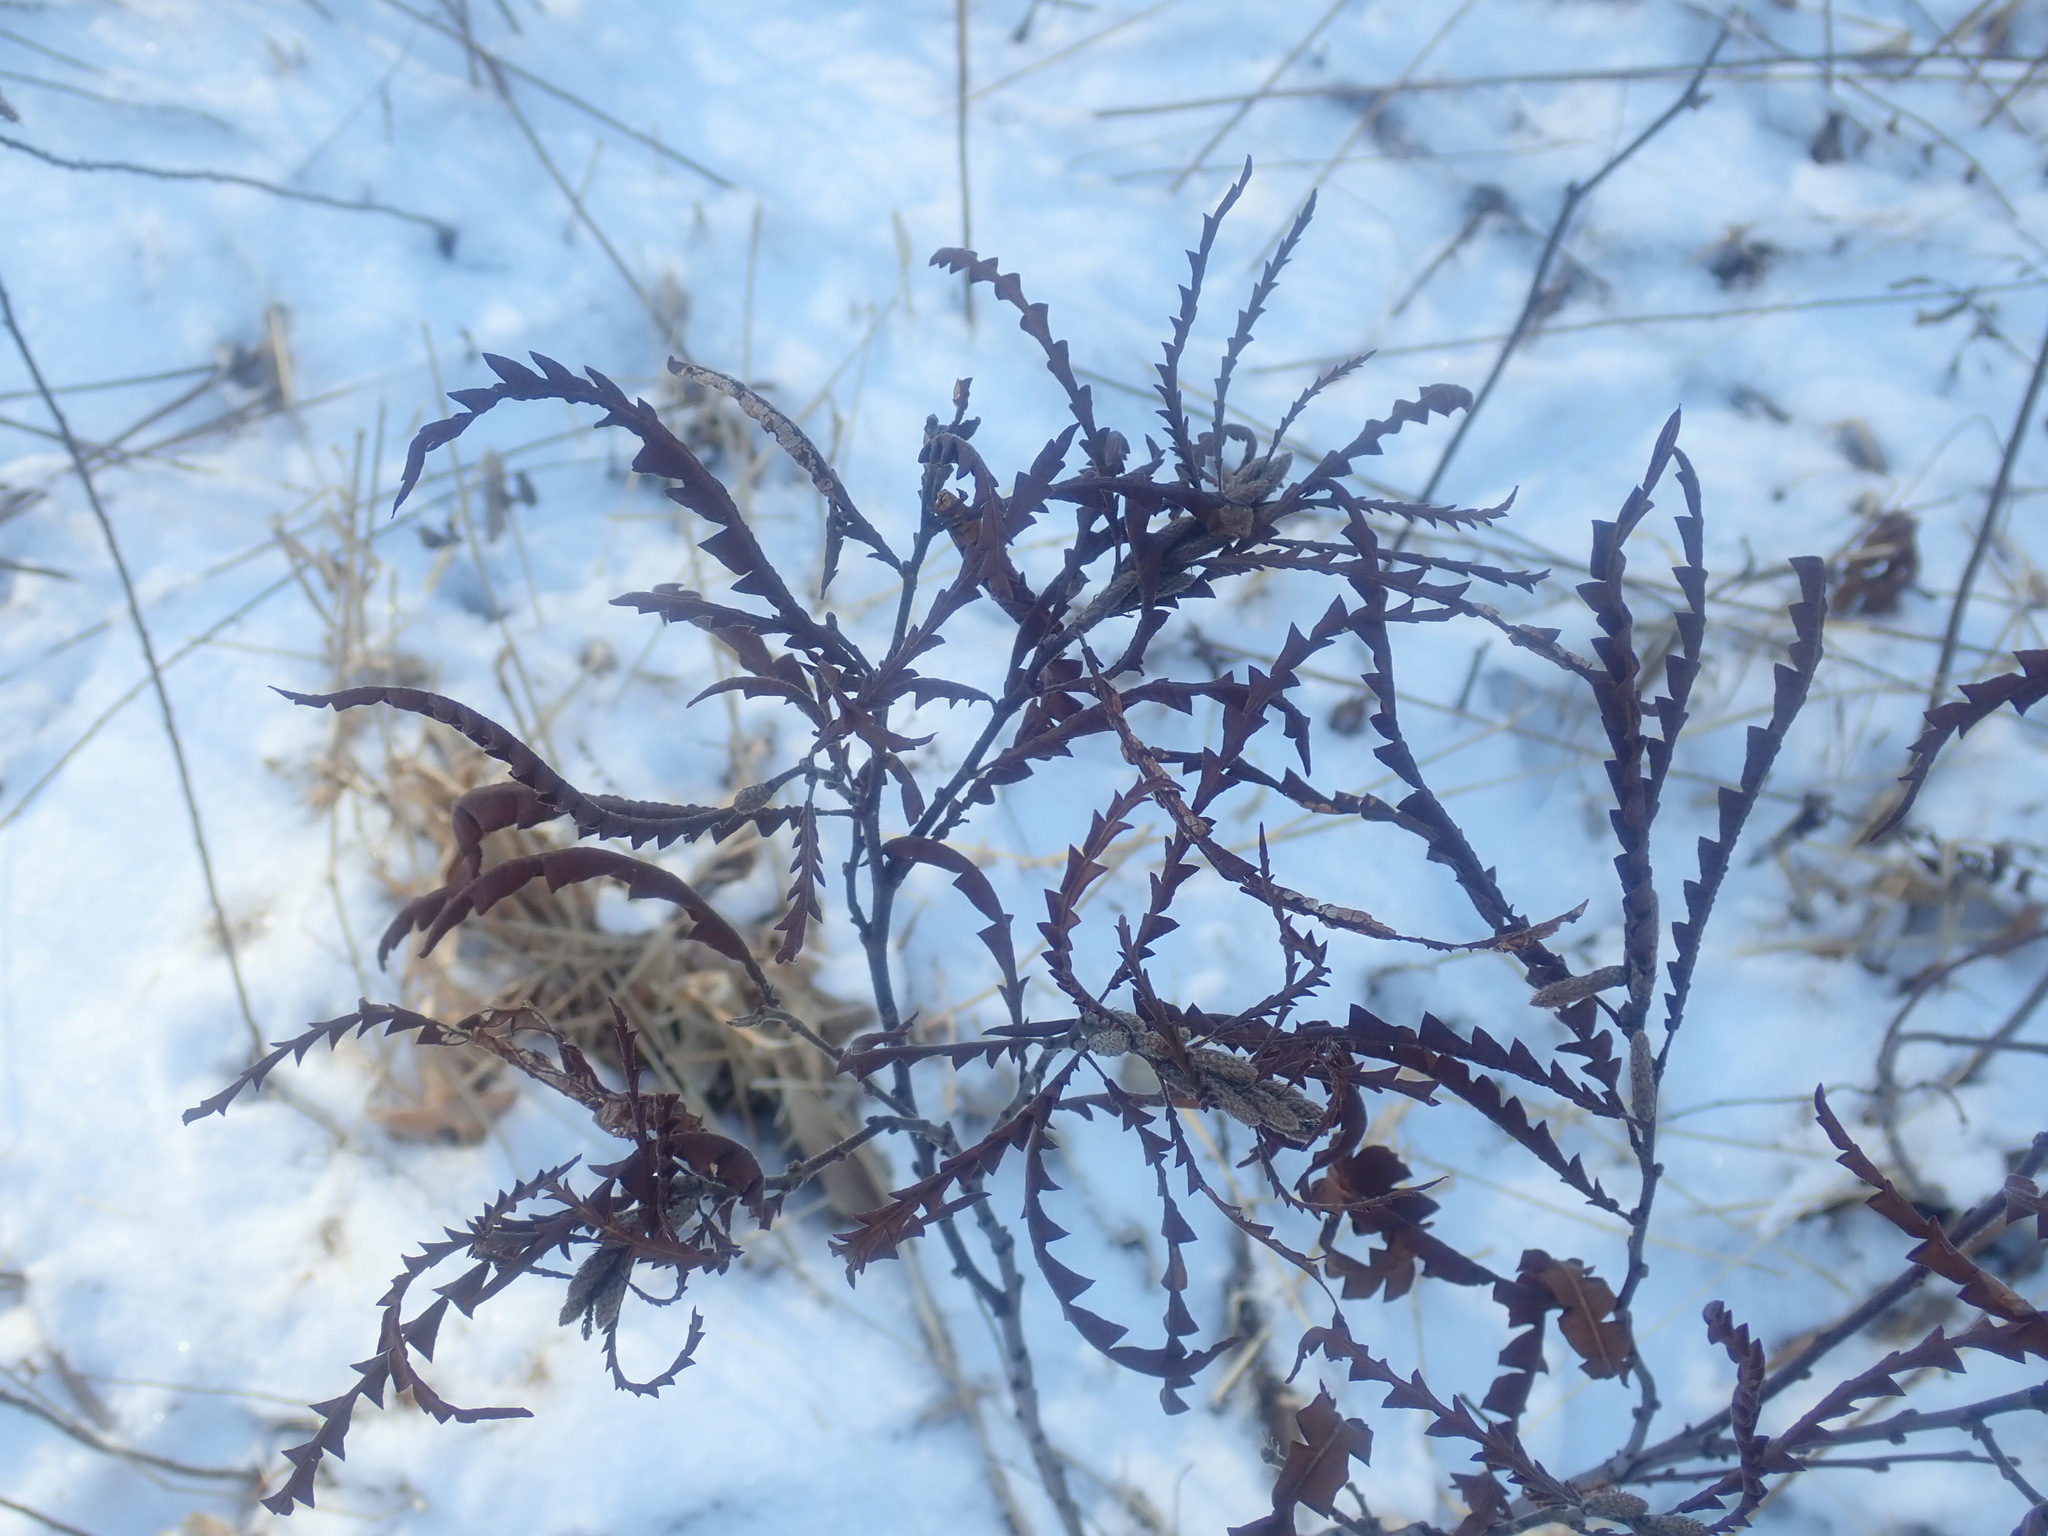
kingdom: Plantae
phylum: Tracheophyta
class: Magnoliopsida
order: Fagales
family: Myricaceae
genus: Comptonia
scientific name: Comptonia peregrina
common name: Sweet-fern
